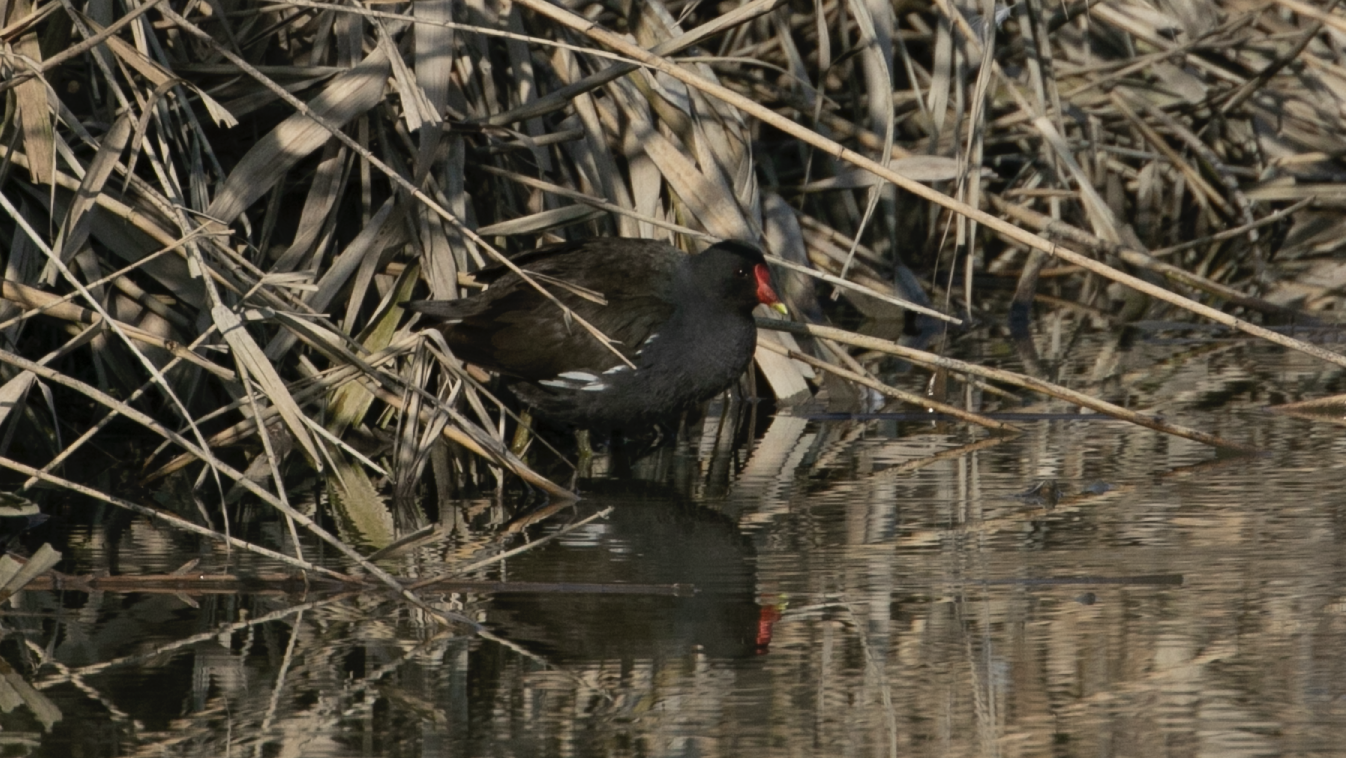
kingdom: Animalia
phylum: Chordata
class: Aves
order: Gruiformes
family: Rallidae
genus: Gallinula
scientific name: Gallinula chloropus
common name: Common moorhen
